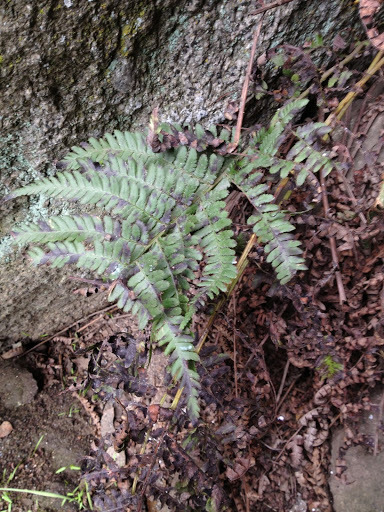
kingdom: Plantae
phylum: Tracheophyta
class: Polypodiopsida
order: Polypodiales
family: Dryopteridaceae
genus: Dryopteris
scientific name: Dryopteris arguta
